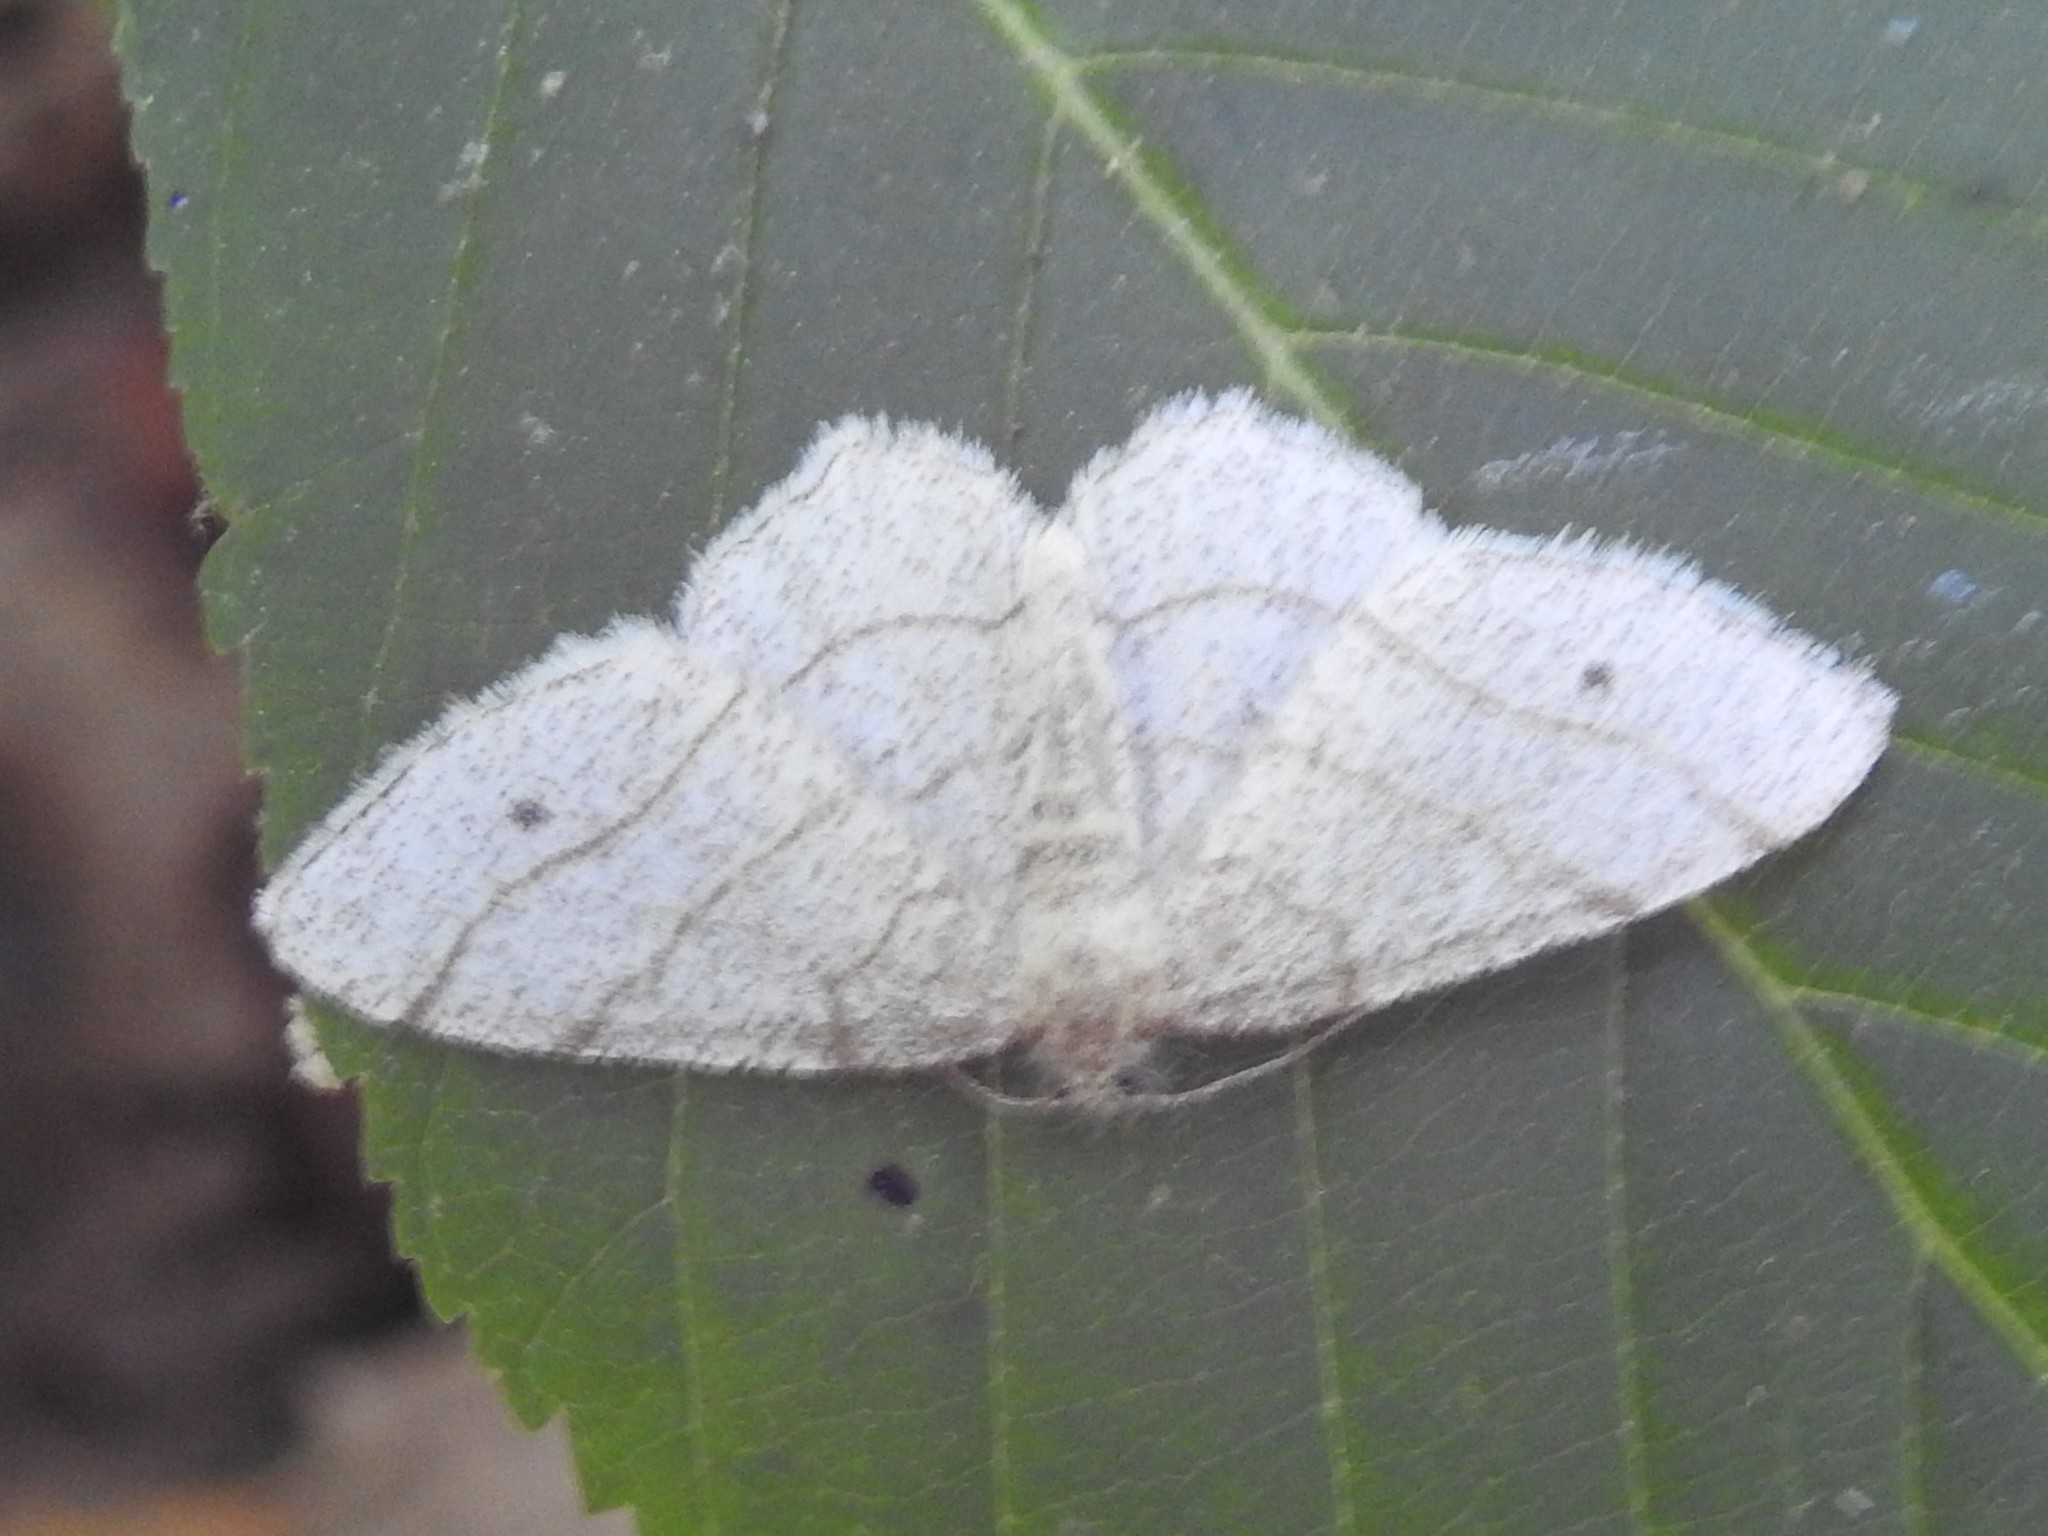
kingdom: Animalia
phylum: Arthropoda
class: Insecta
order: Lepidoptera
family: Geometridae
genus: Trigrammia
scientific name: Trigrammia quadrinotaria
